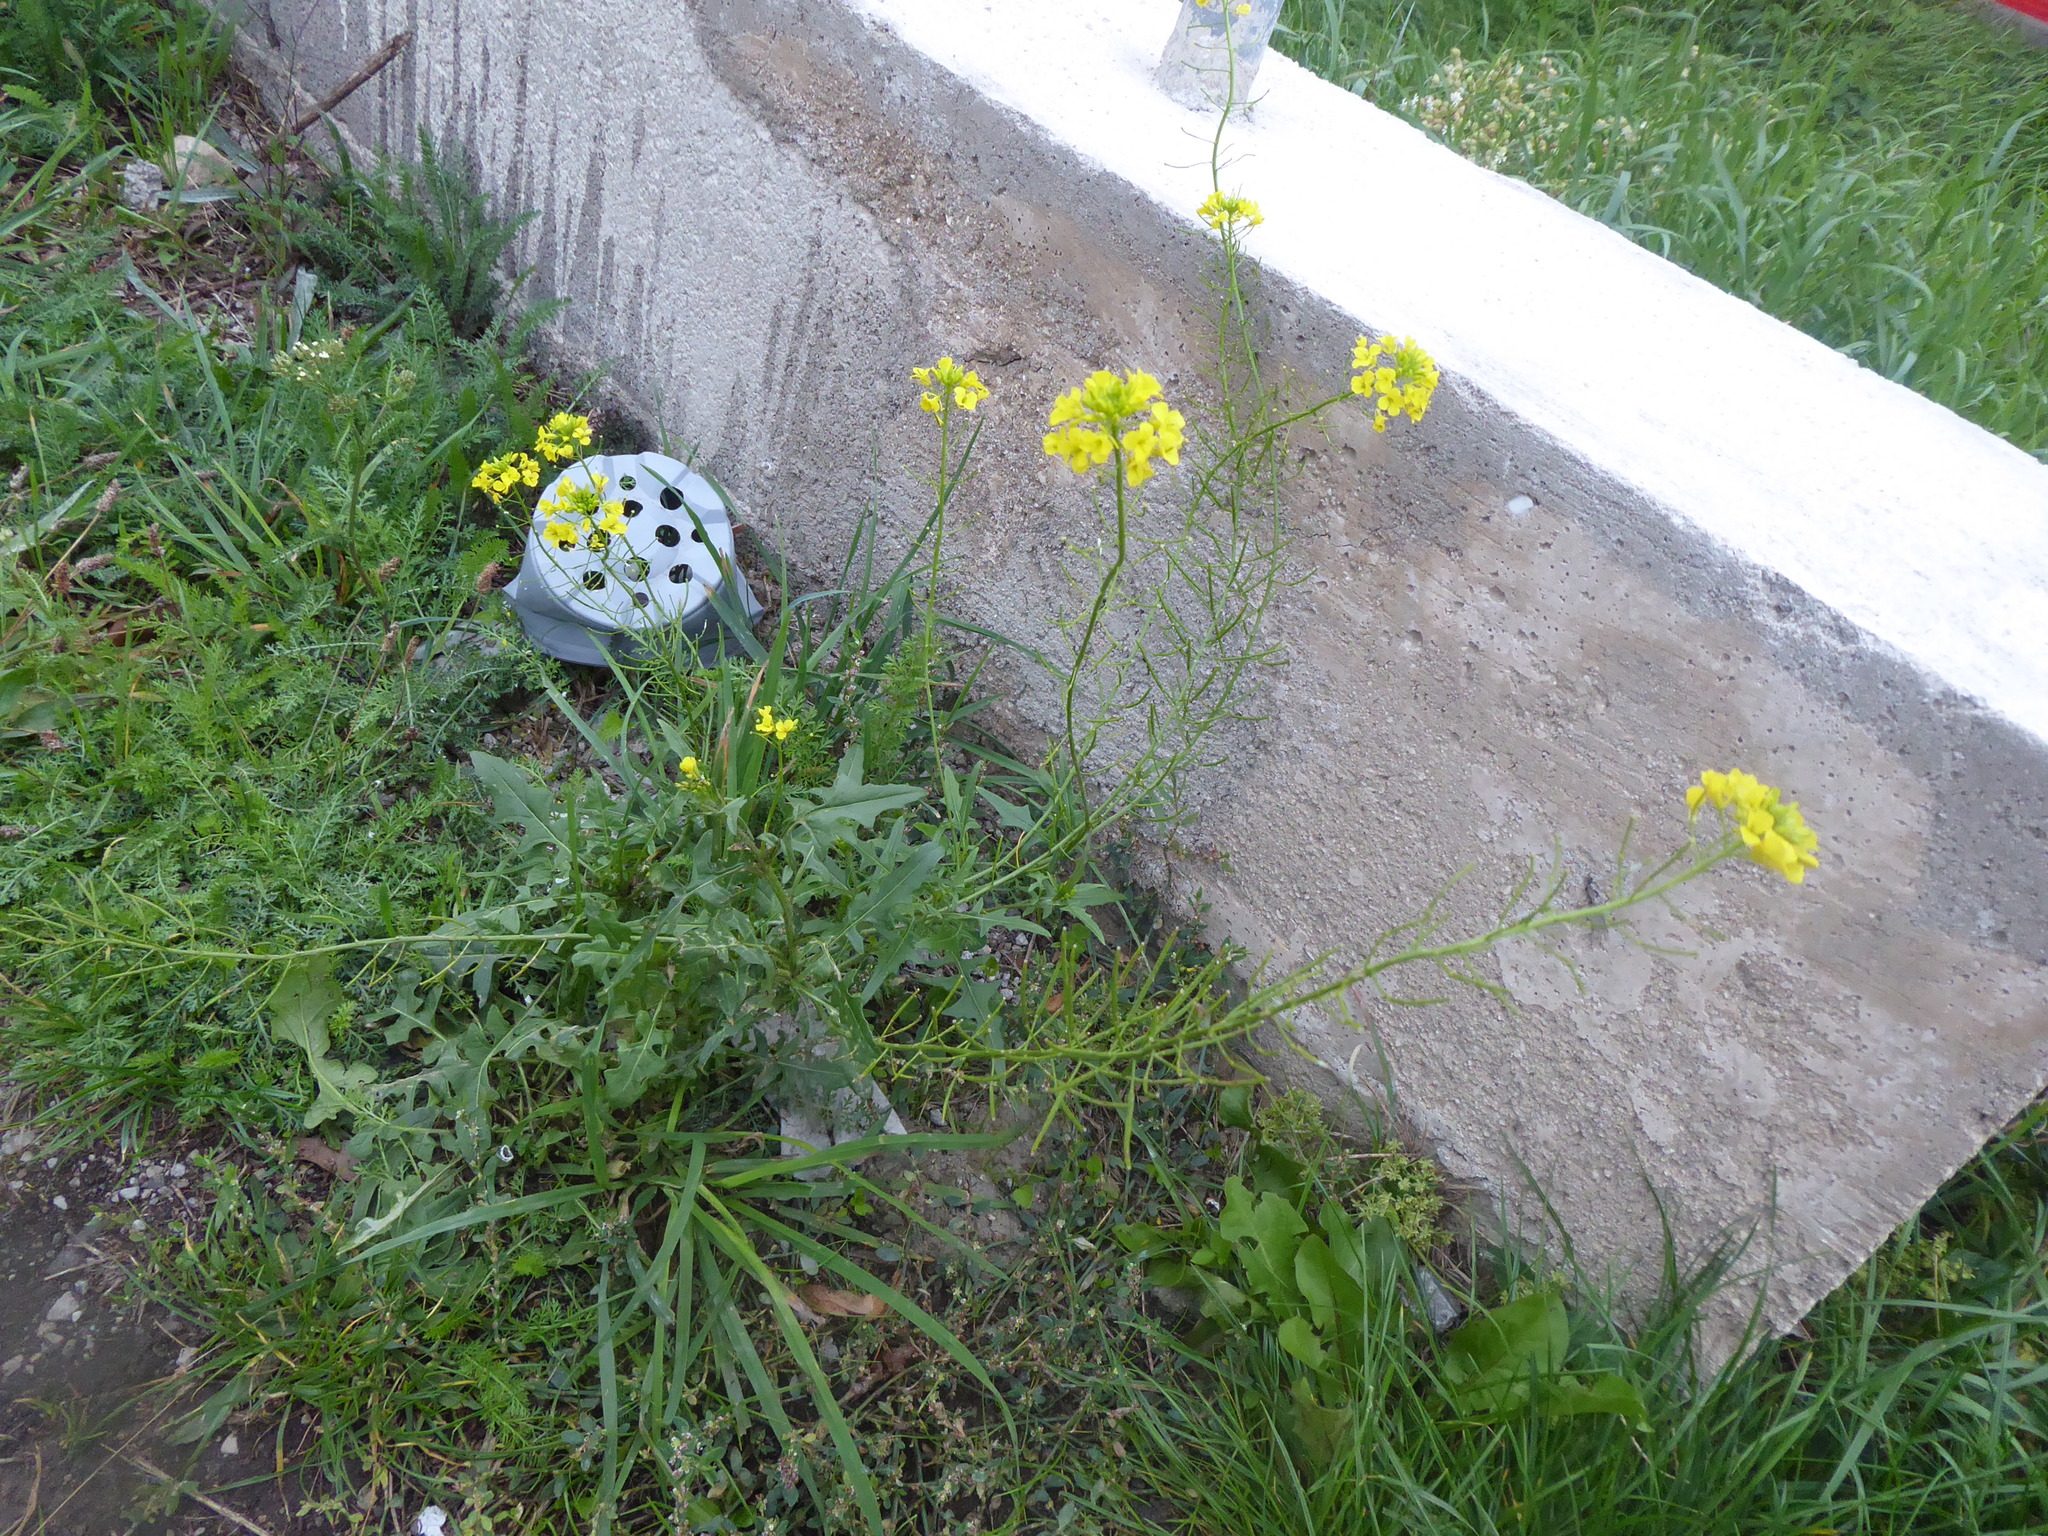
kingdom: Plantae
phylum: Tracheophyta
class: Magnoliopsida
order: Brassicales
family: Brassicaceae
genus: Sisymbrium
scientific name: Sisymbrium loeselii
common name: False london-rocket
